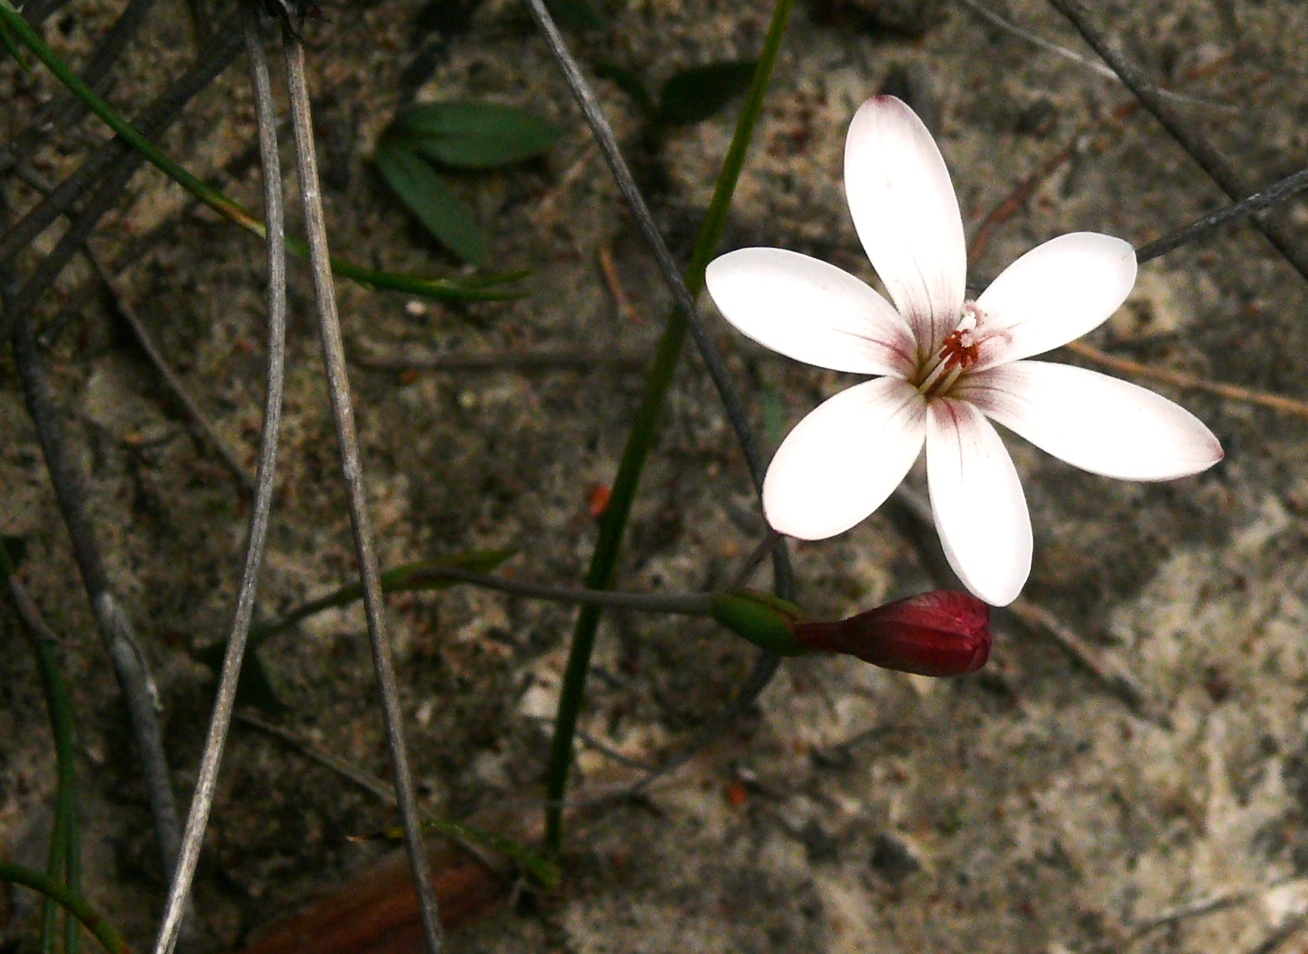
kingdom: Plantae
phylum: Tracheophyta
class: Liliopsida
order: Asparagales
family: Iridaceae
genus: Geissorhiza
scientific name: Geissorhiza ovata
